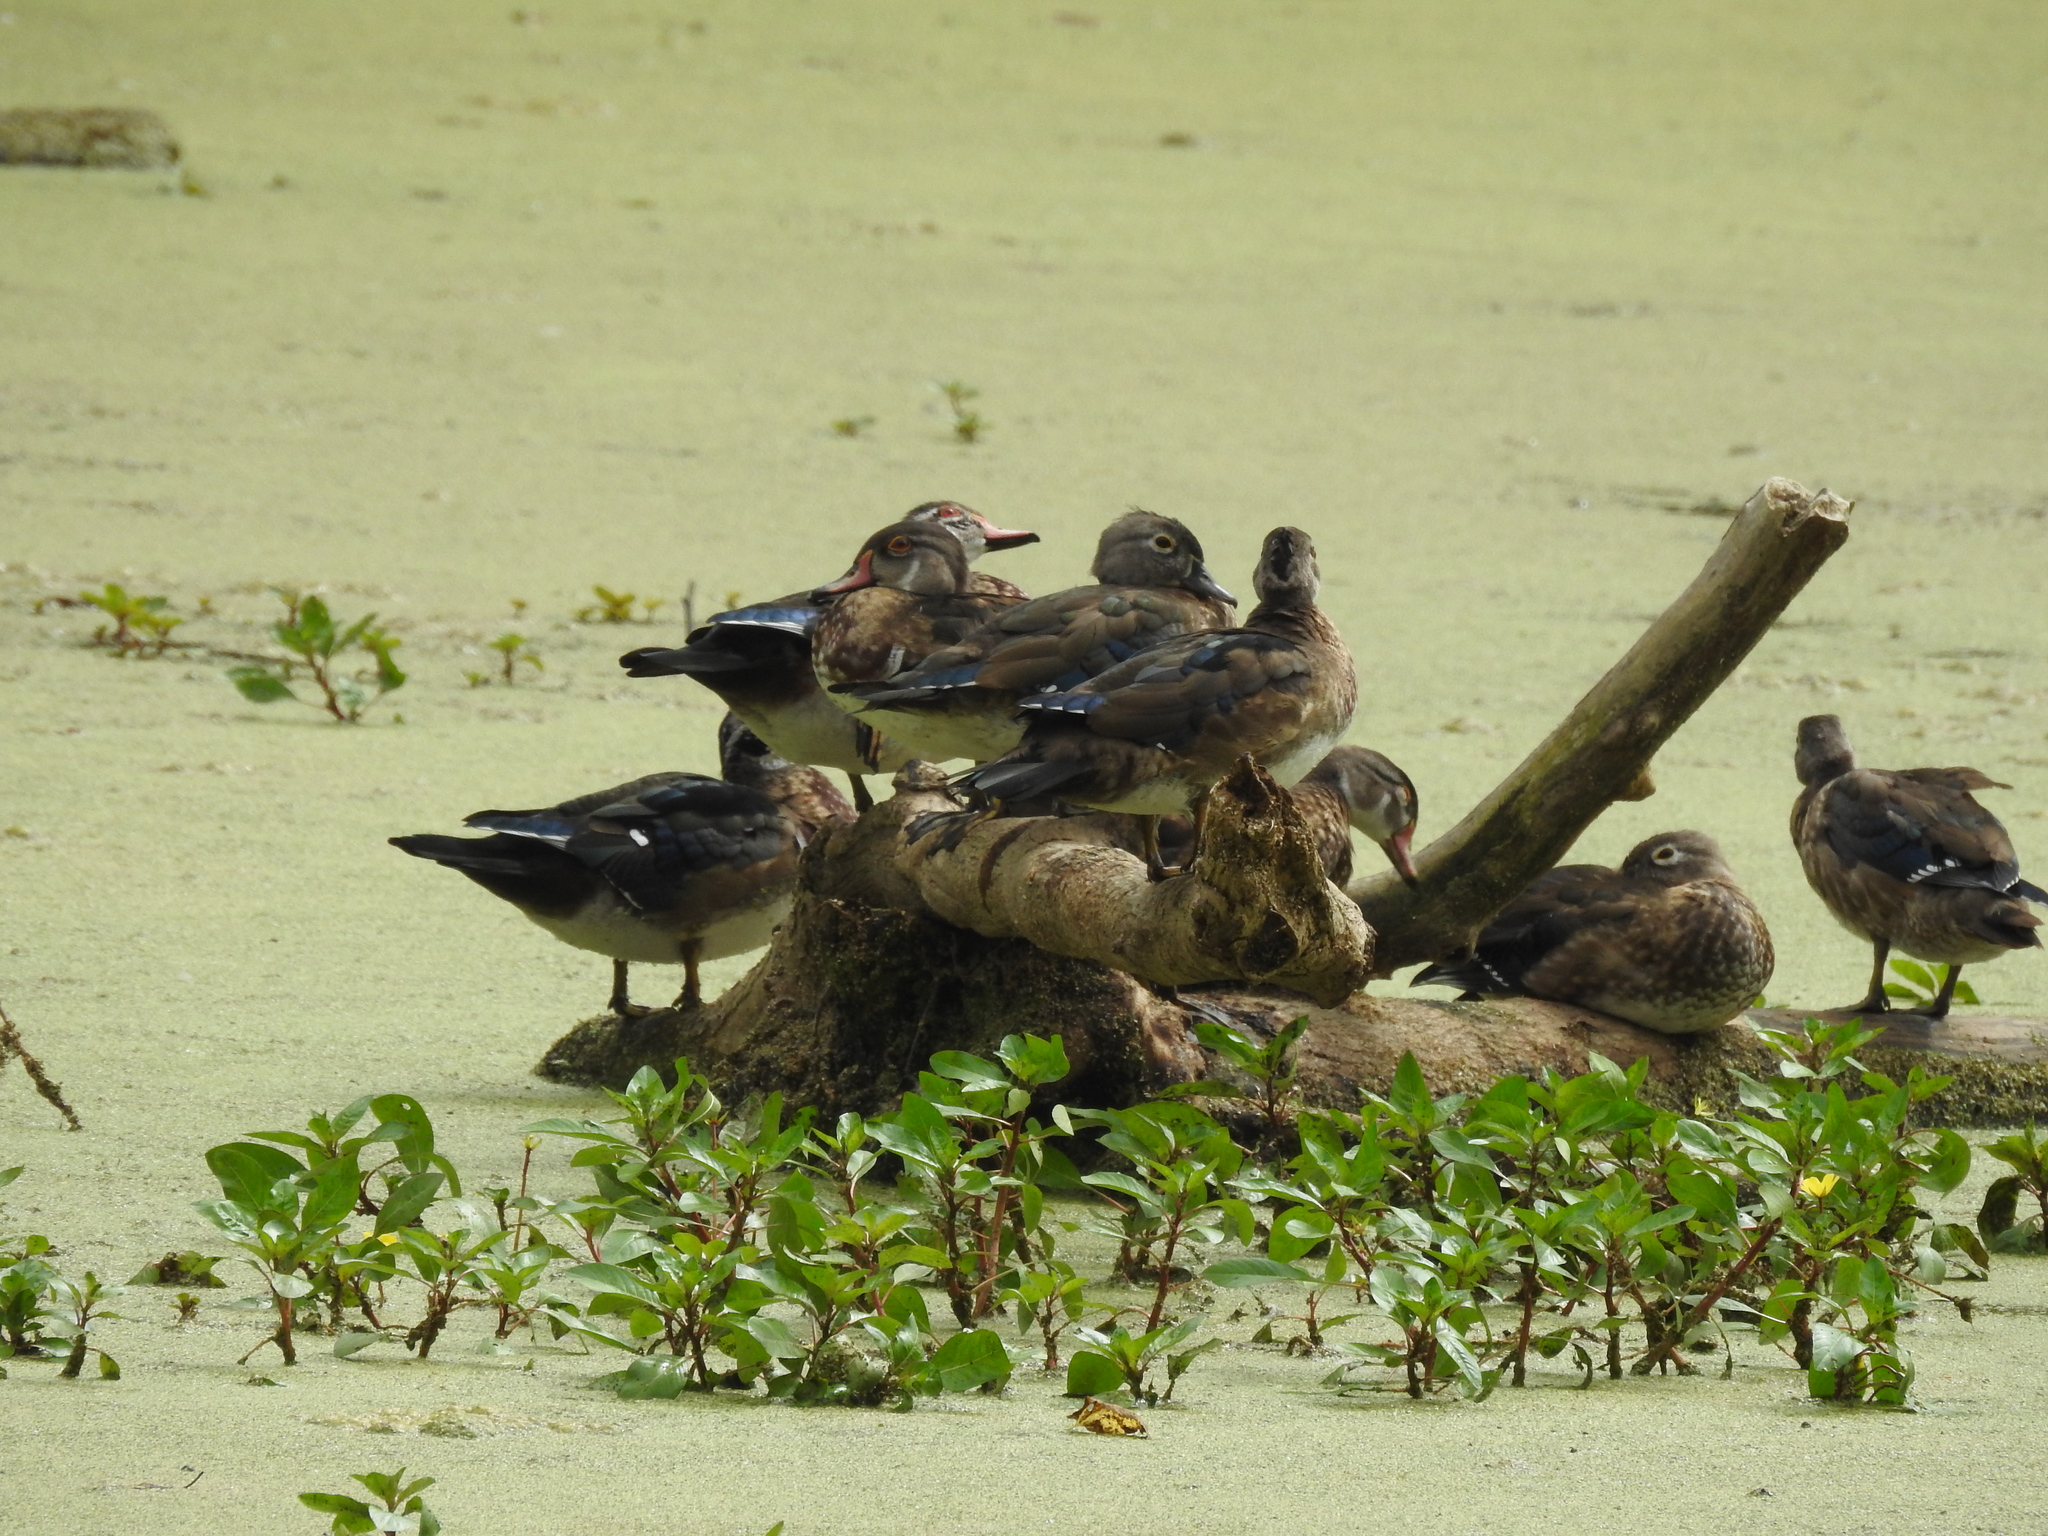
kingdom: Animalia
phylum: Chordata
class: Aves
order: Anseriformes
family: Anatidae
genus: Aix
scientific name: Aix sponsa
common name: Wood duck
